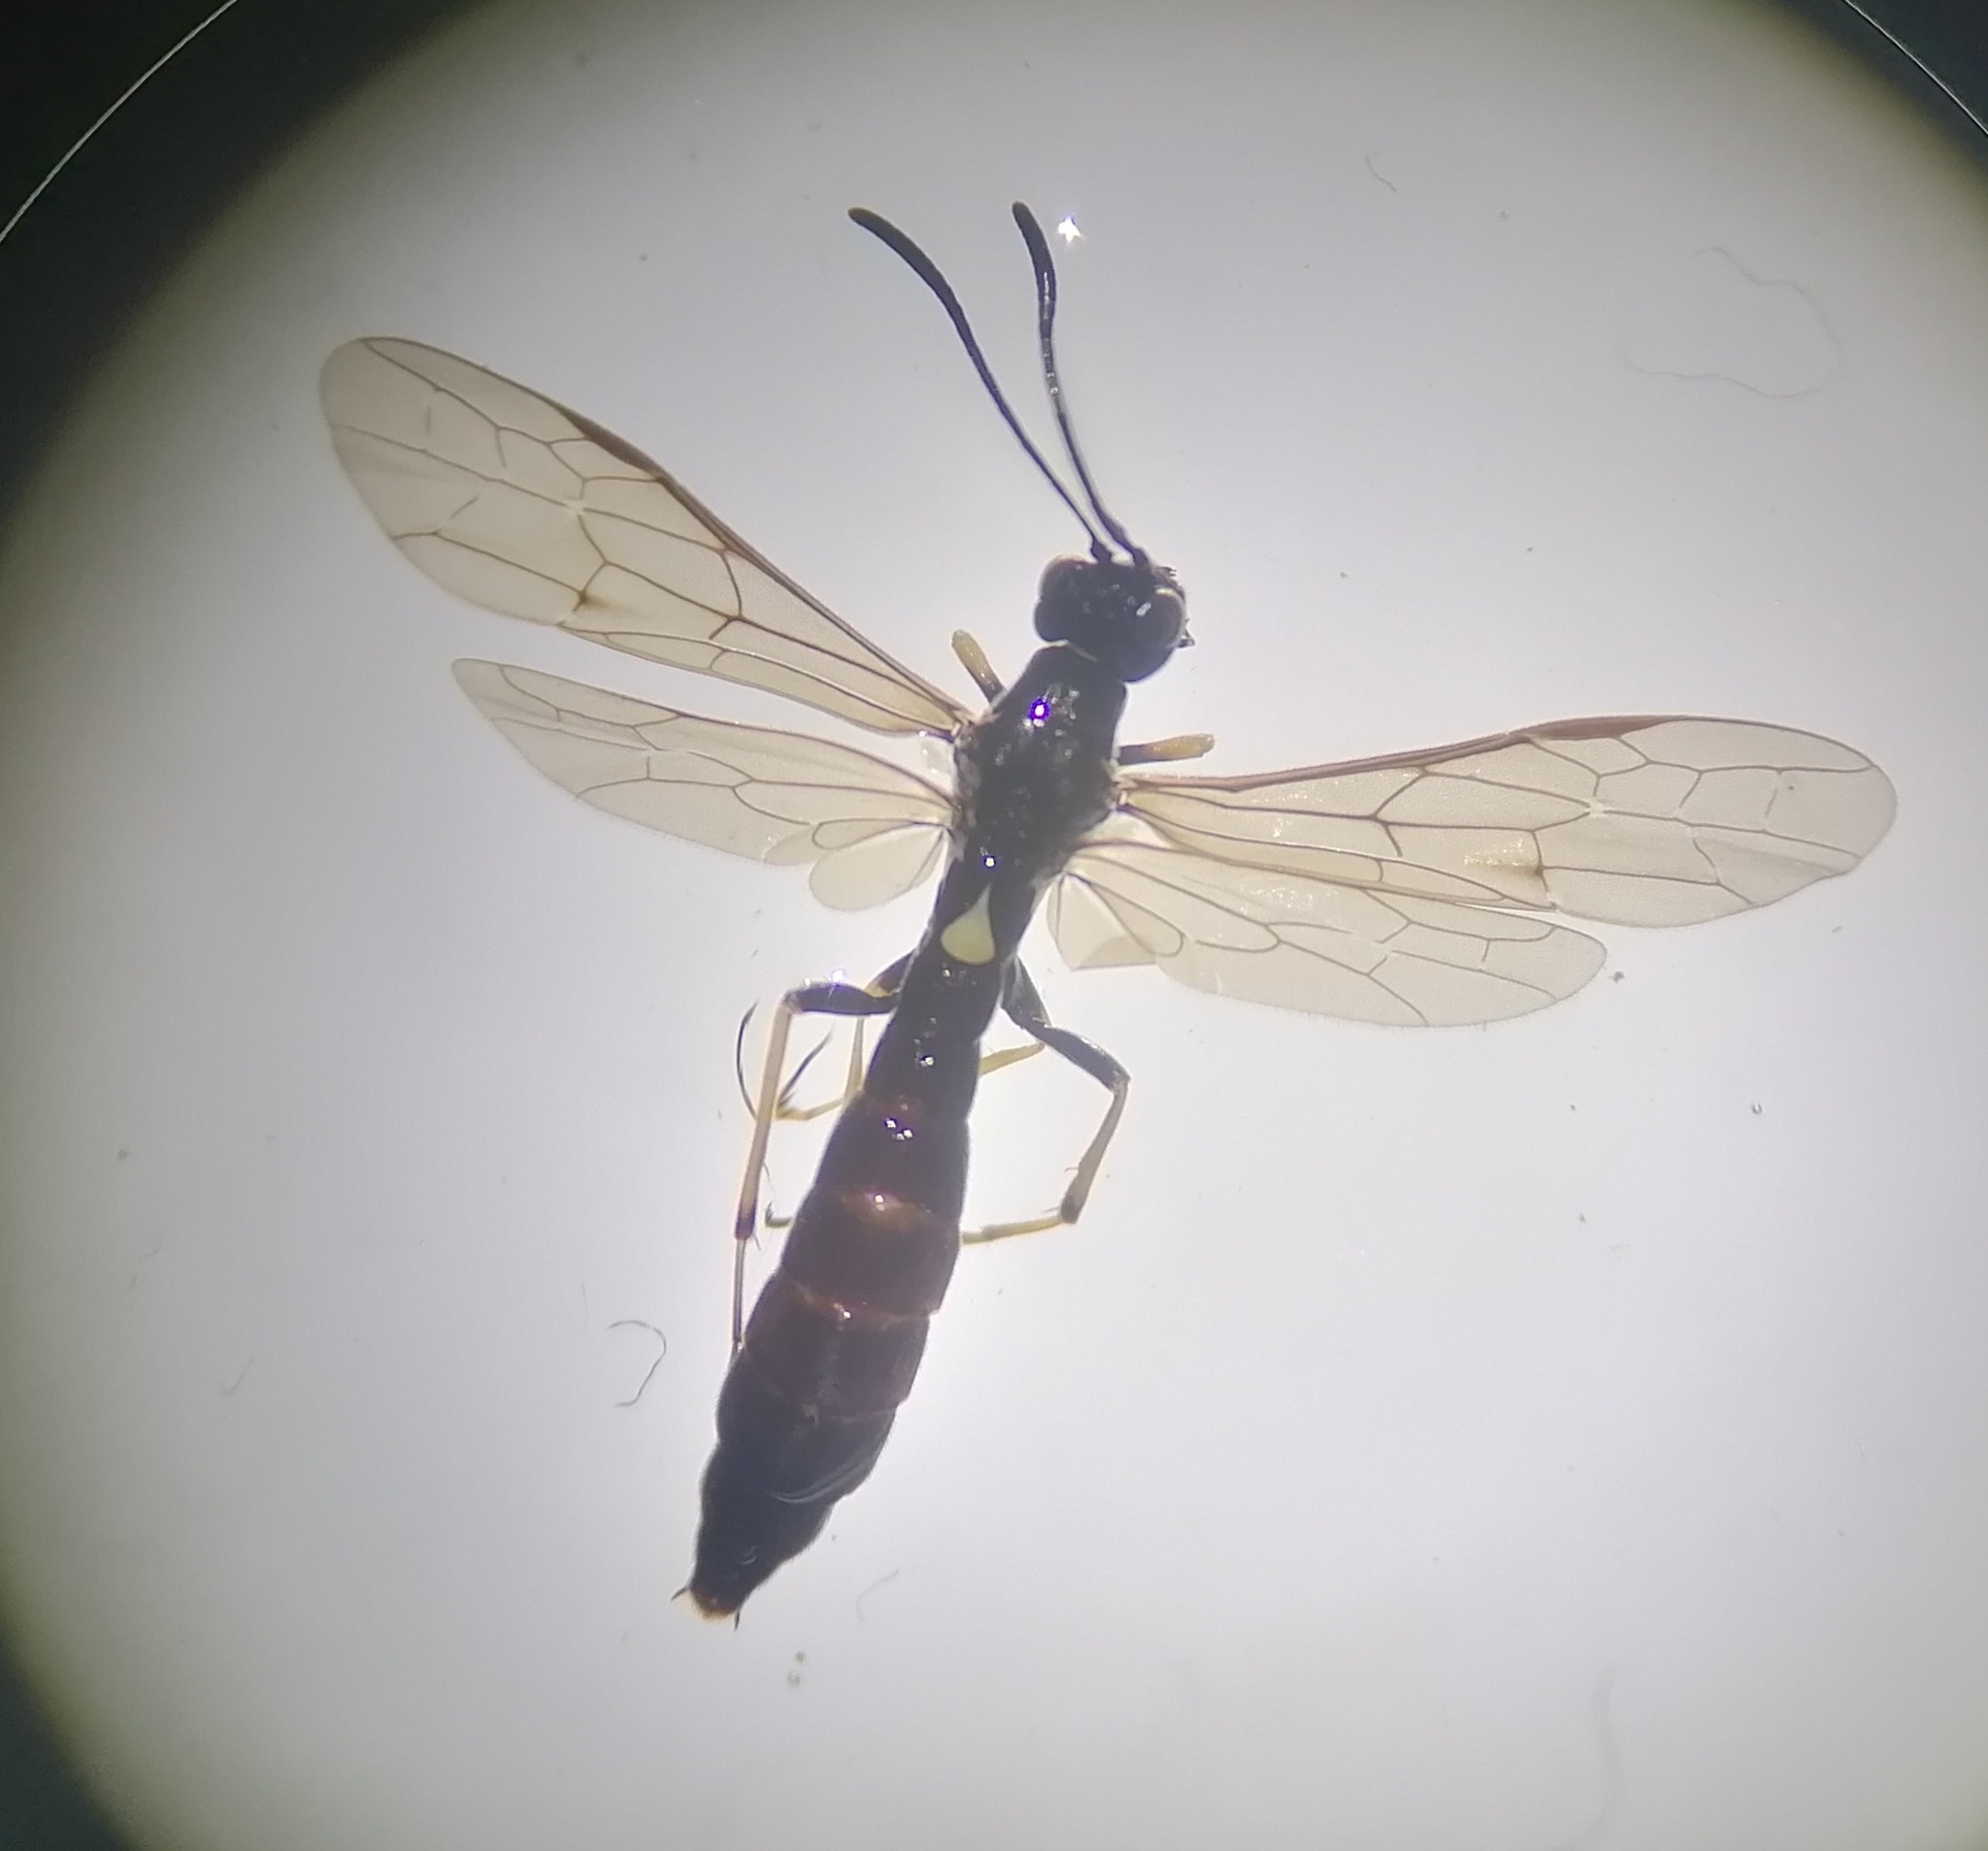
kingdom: Animalia
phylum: Arthropoda
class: Insecta
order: Hymenoptera
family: Cephidae
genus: Calameuta
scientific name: Calameuta pallipes
